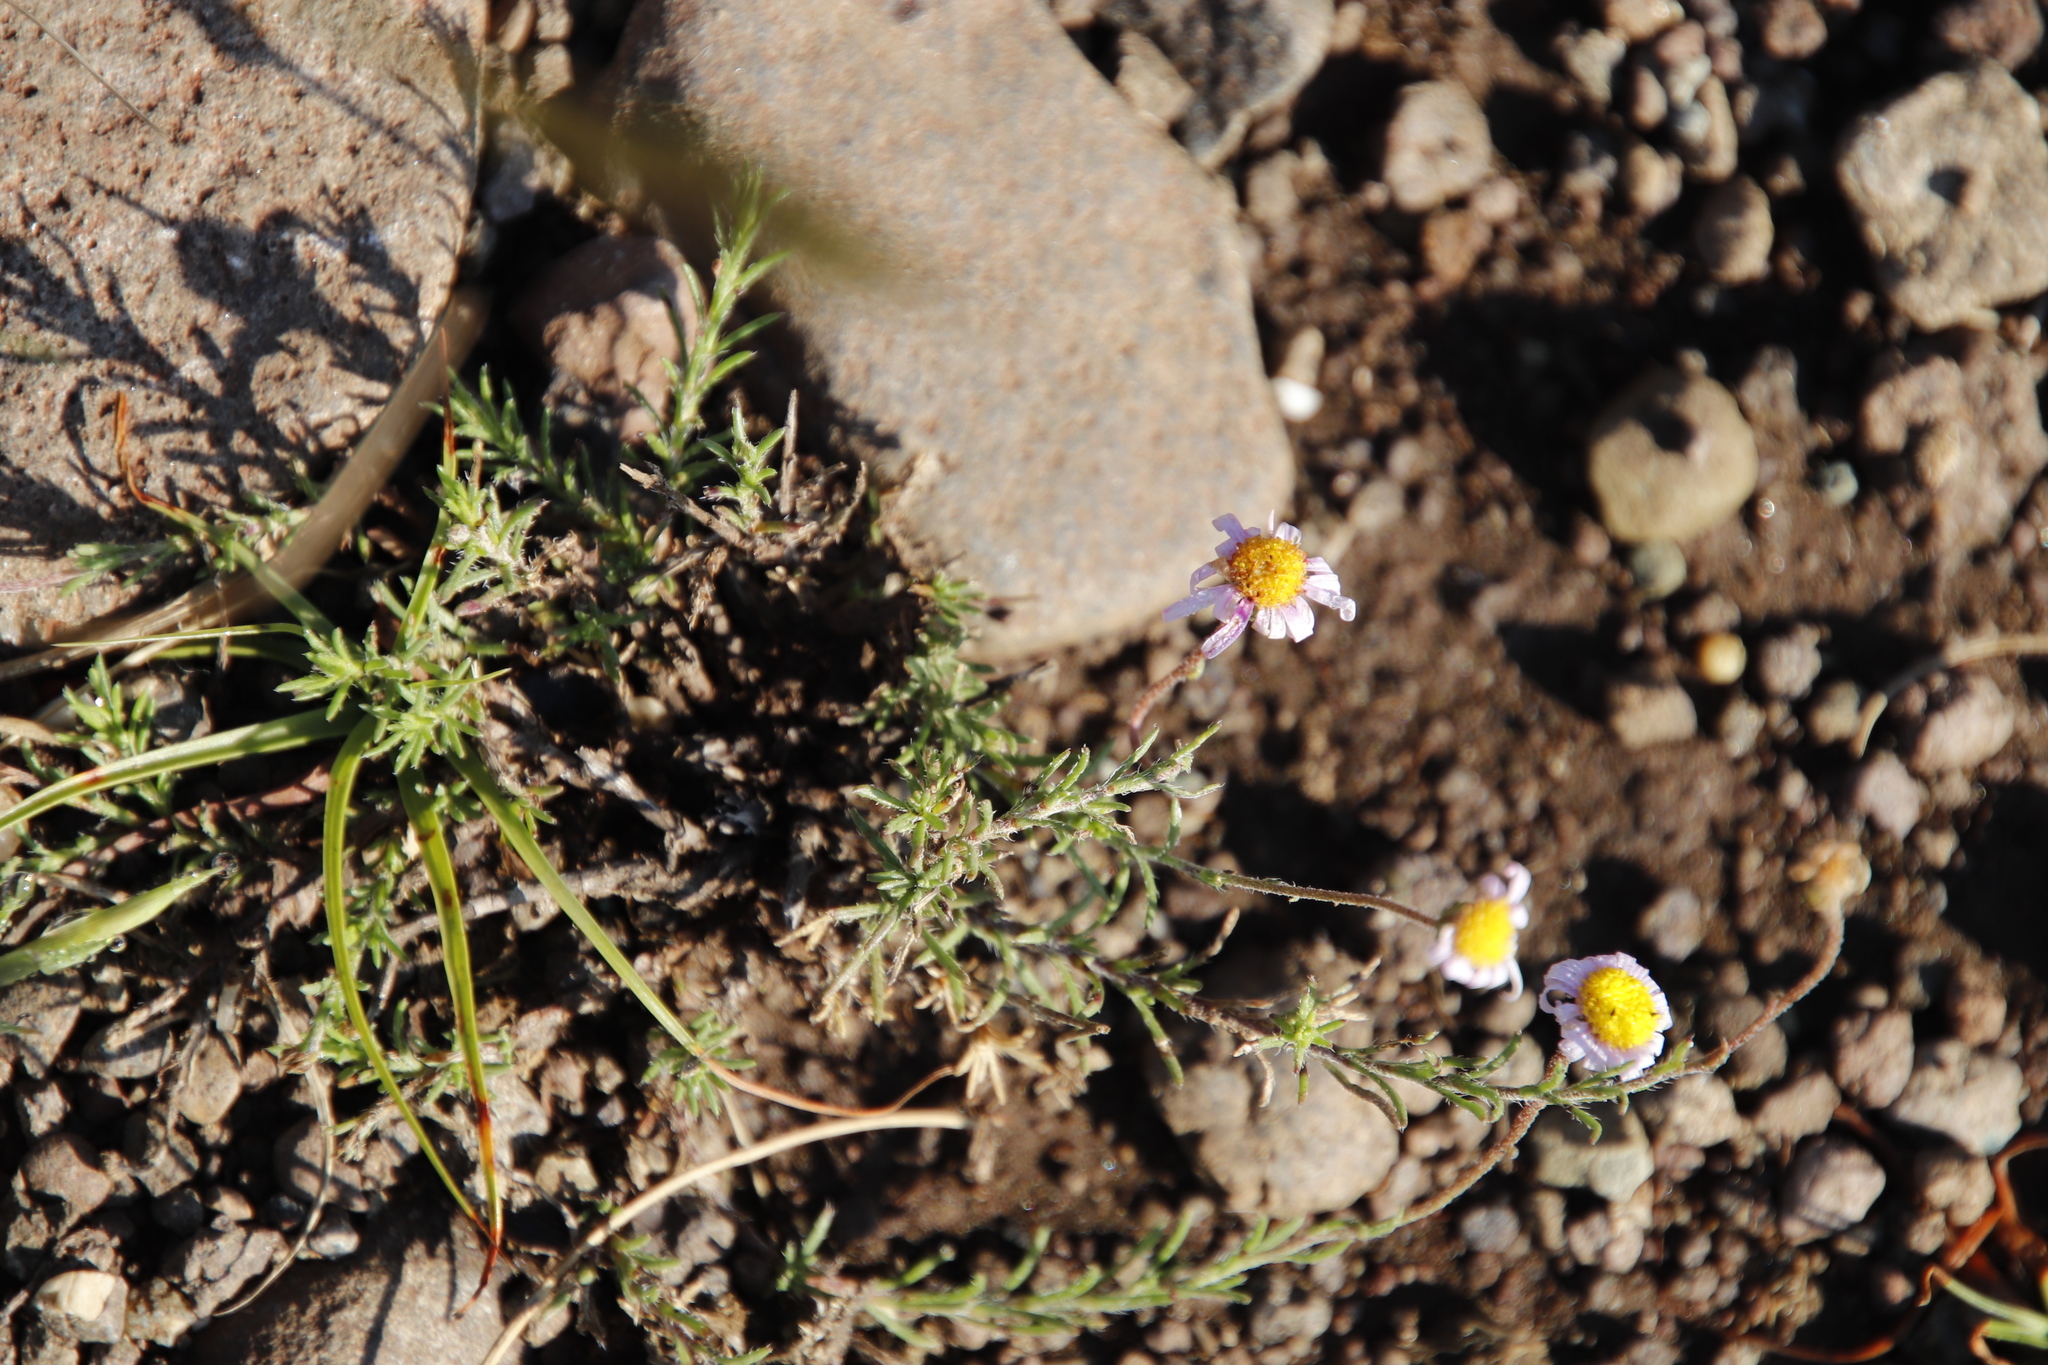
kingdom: Plantae
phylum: Tracheophyta
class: Magnoliopsida
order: Asterales
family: Asteraceae
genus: Felicia
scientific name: Felicia caespitosa
